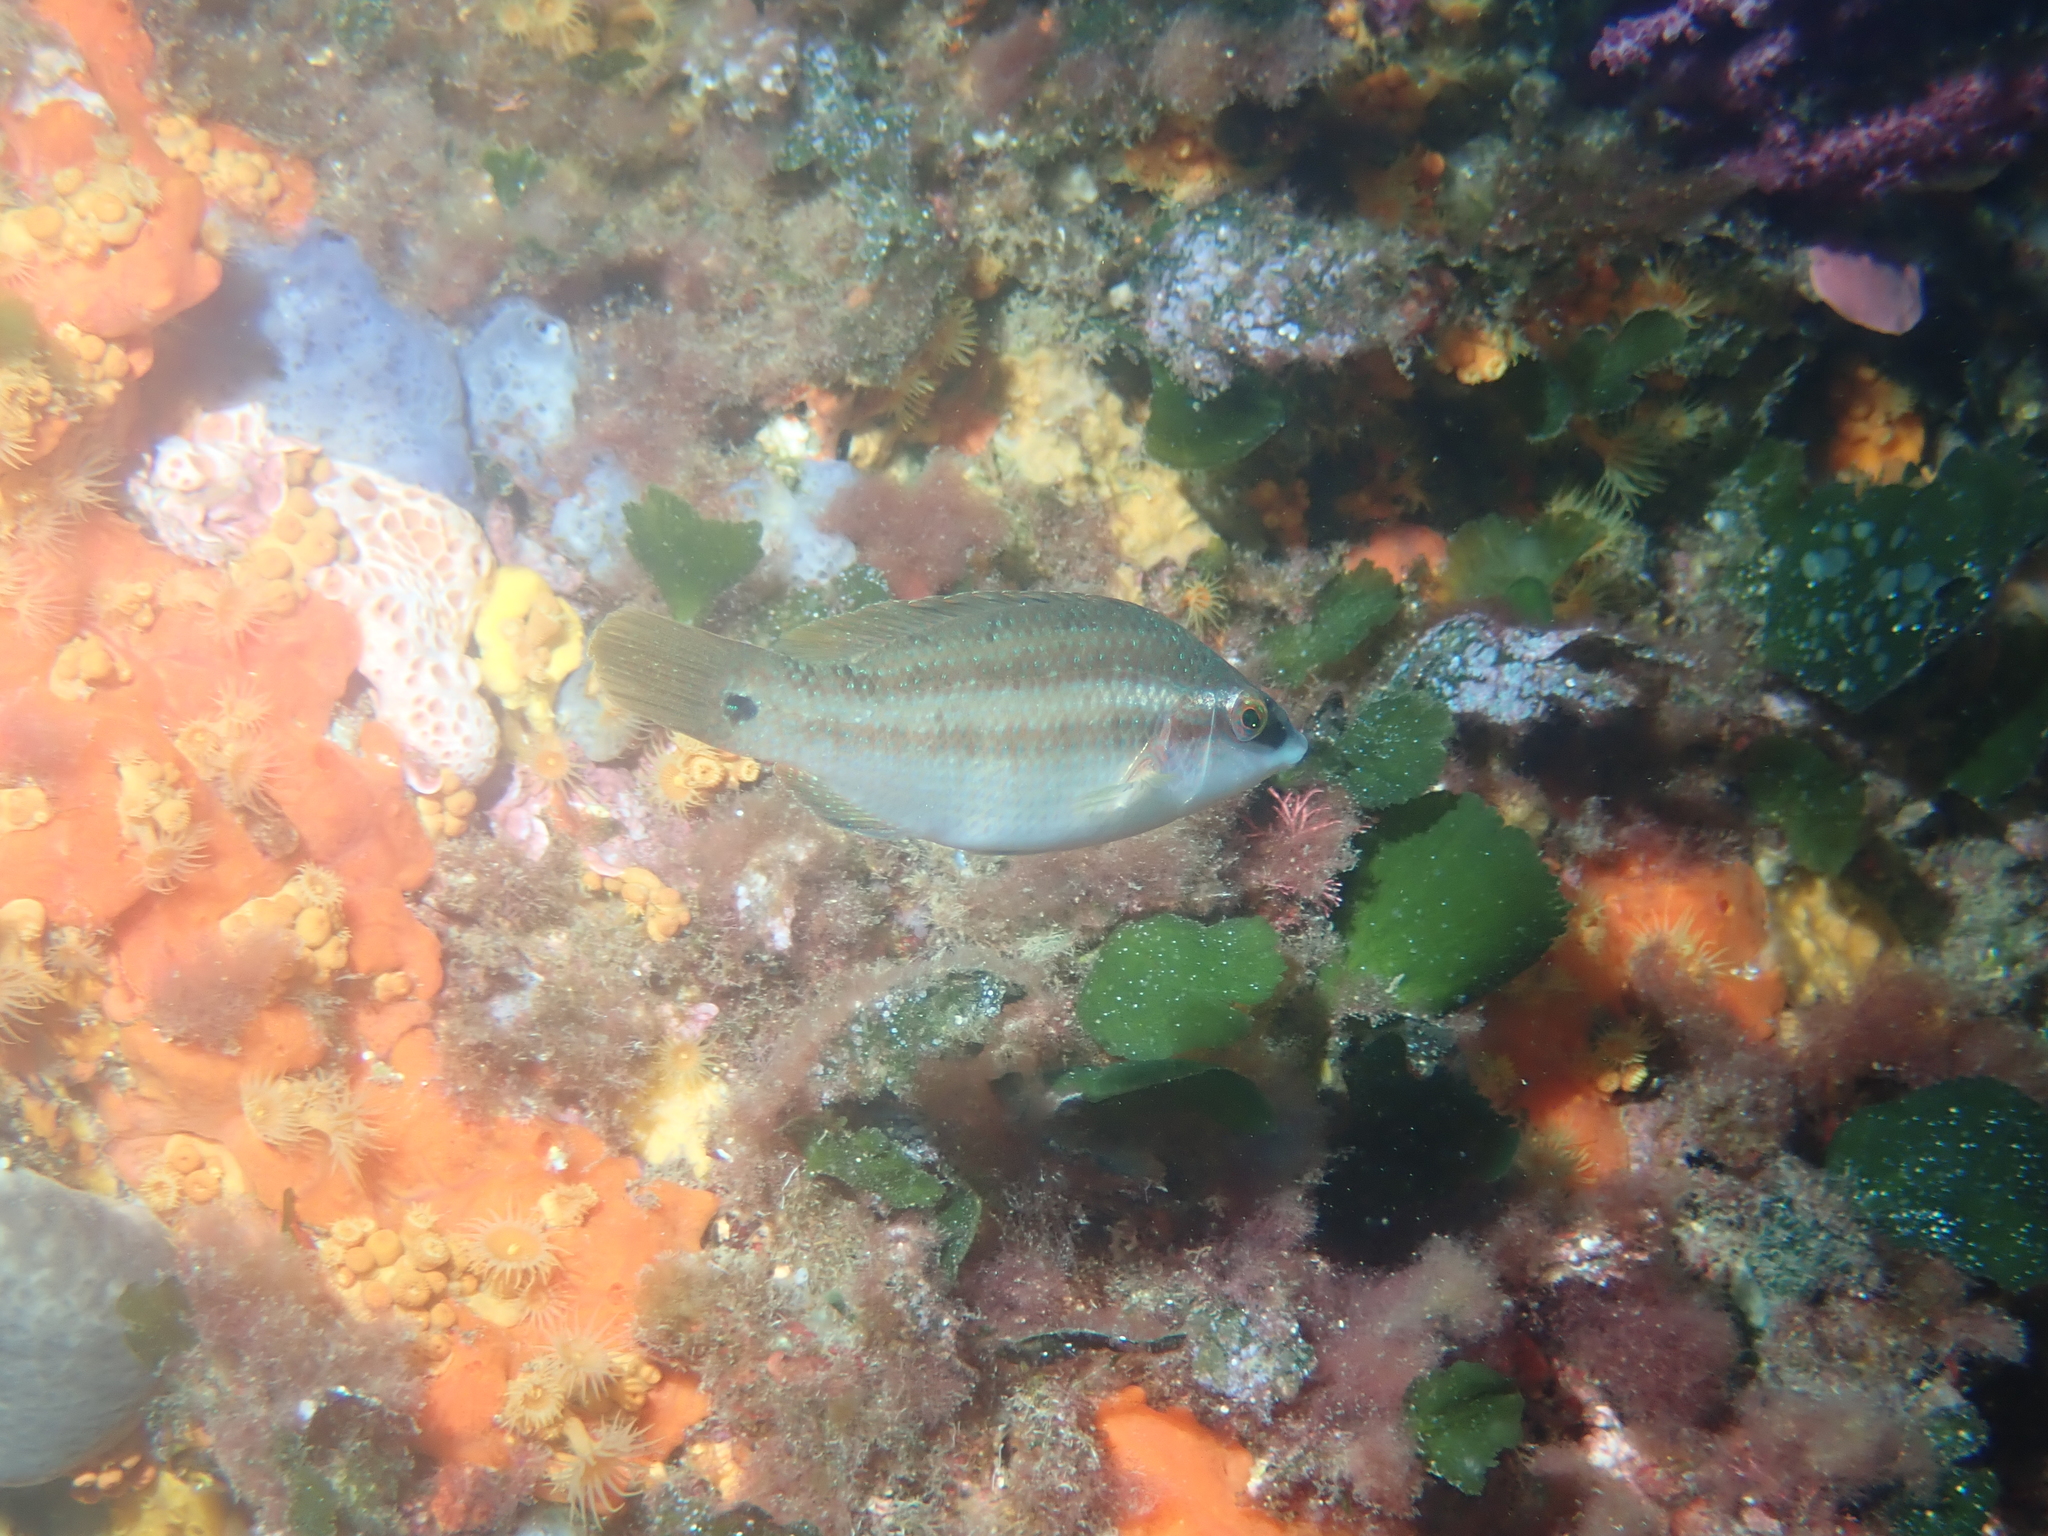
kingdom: Animalia
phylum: Chordata
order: Perciformes
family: Labridae
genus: Symphodus
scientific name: Symphodus tinca
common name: Peacock wrasse
